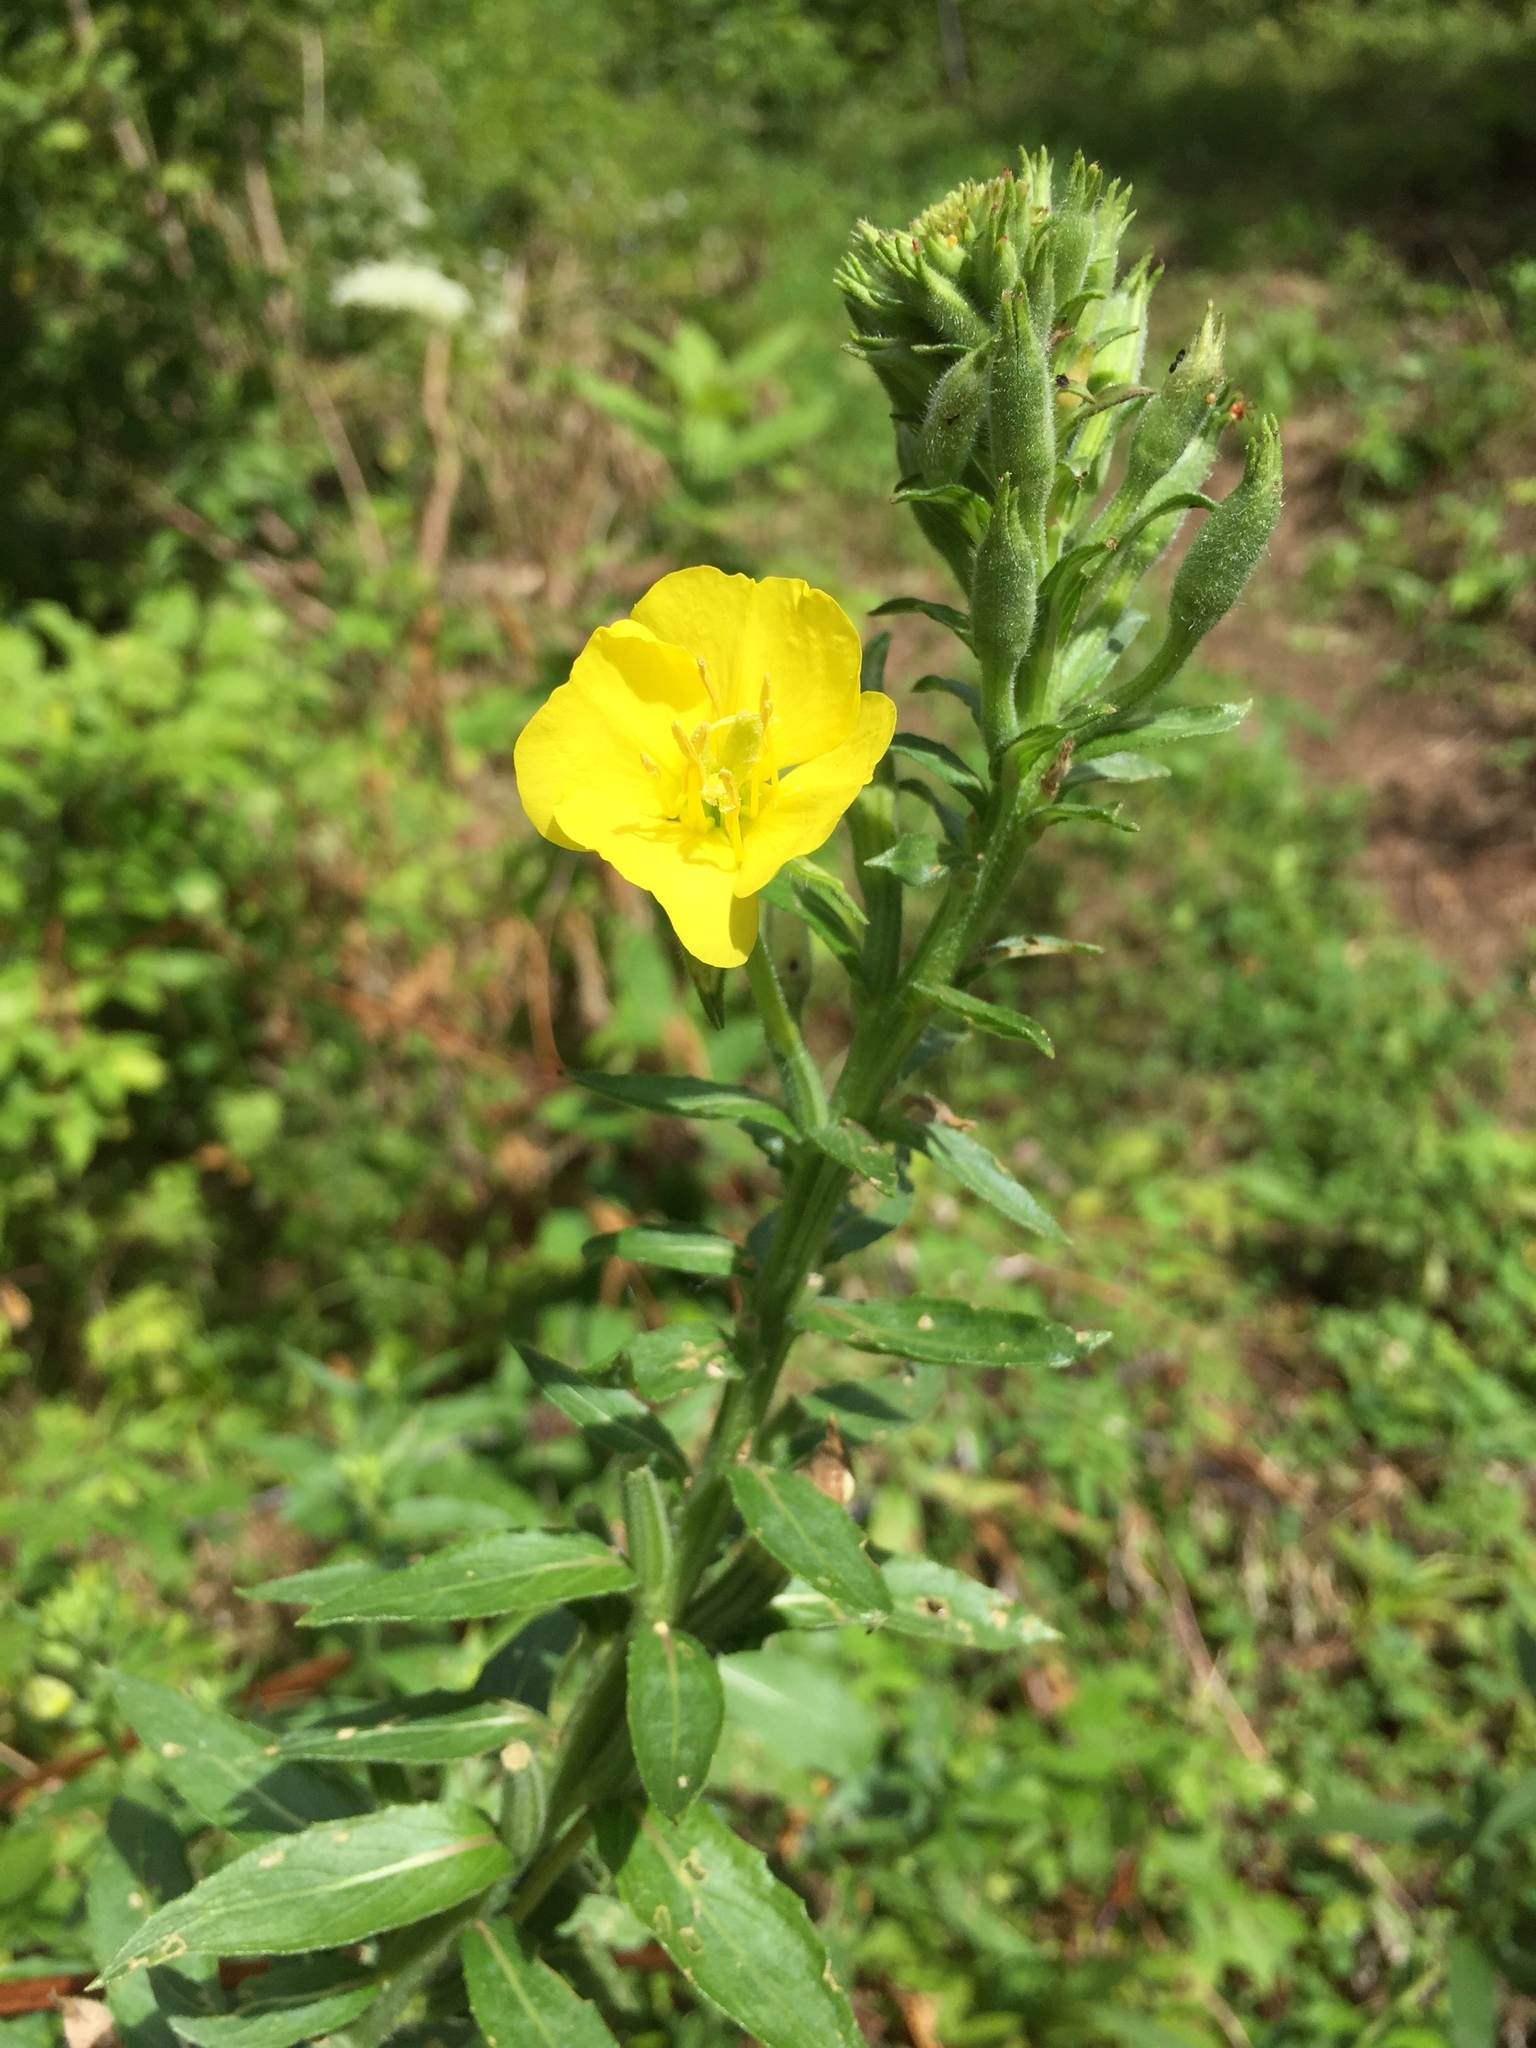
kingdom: Plantae
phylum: Tracheophyta
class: Magnoliopsida
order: Myrtales
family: Onagraceae
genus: Oenothera
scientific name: Oenothera biennis
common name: Common evening-primrose
